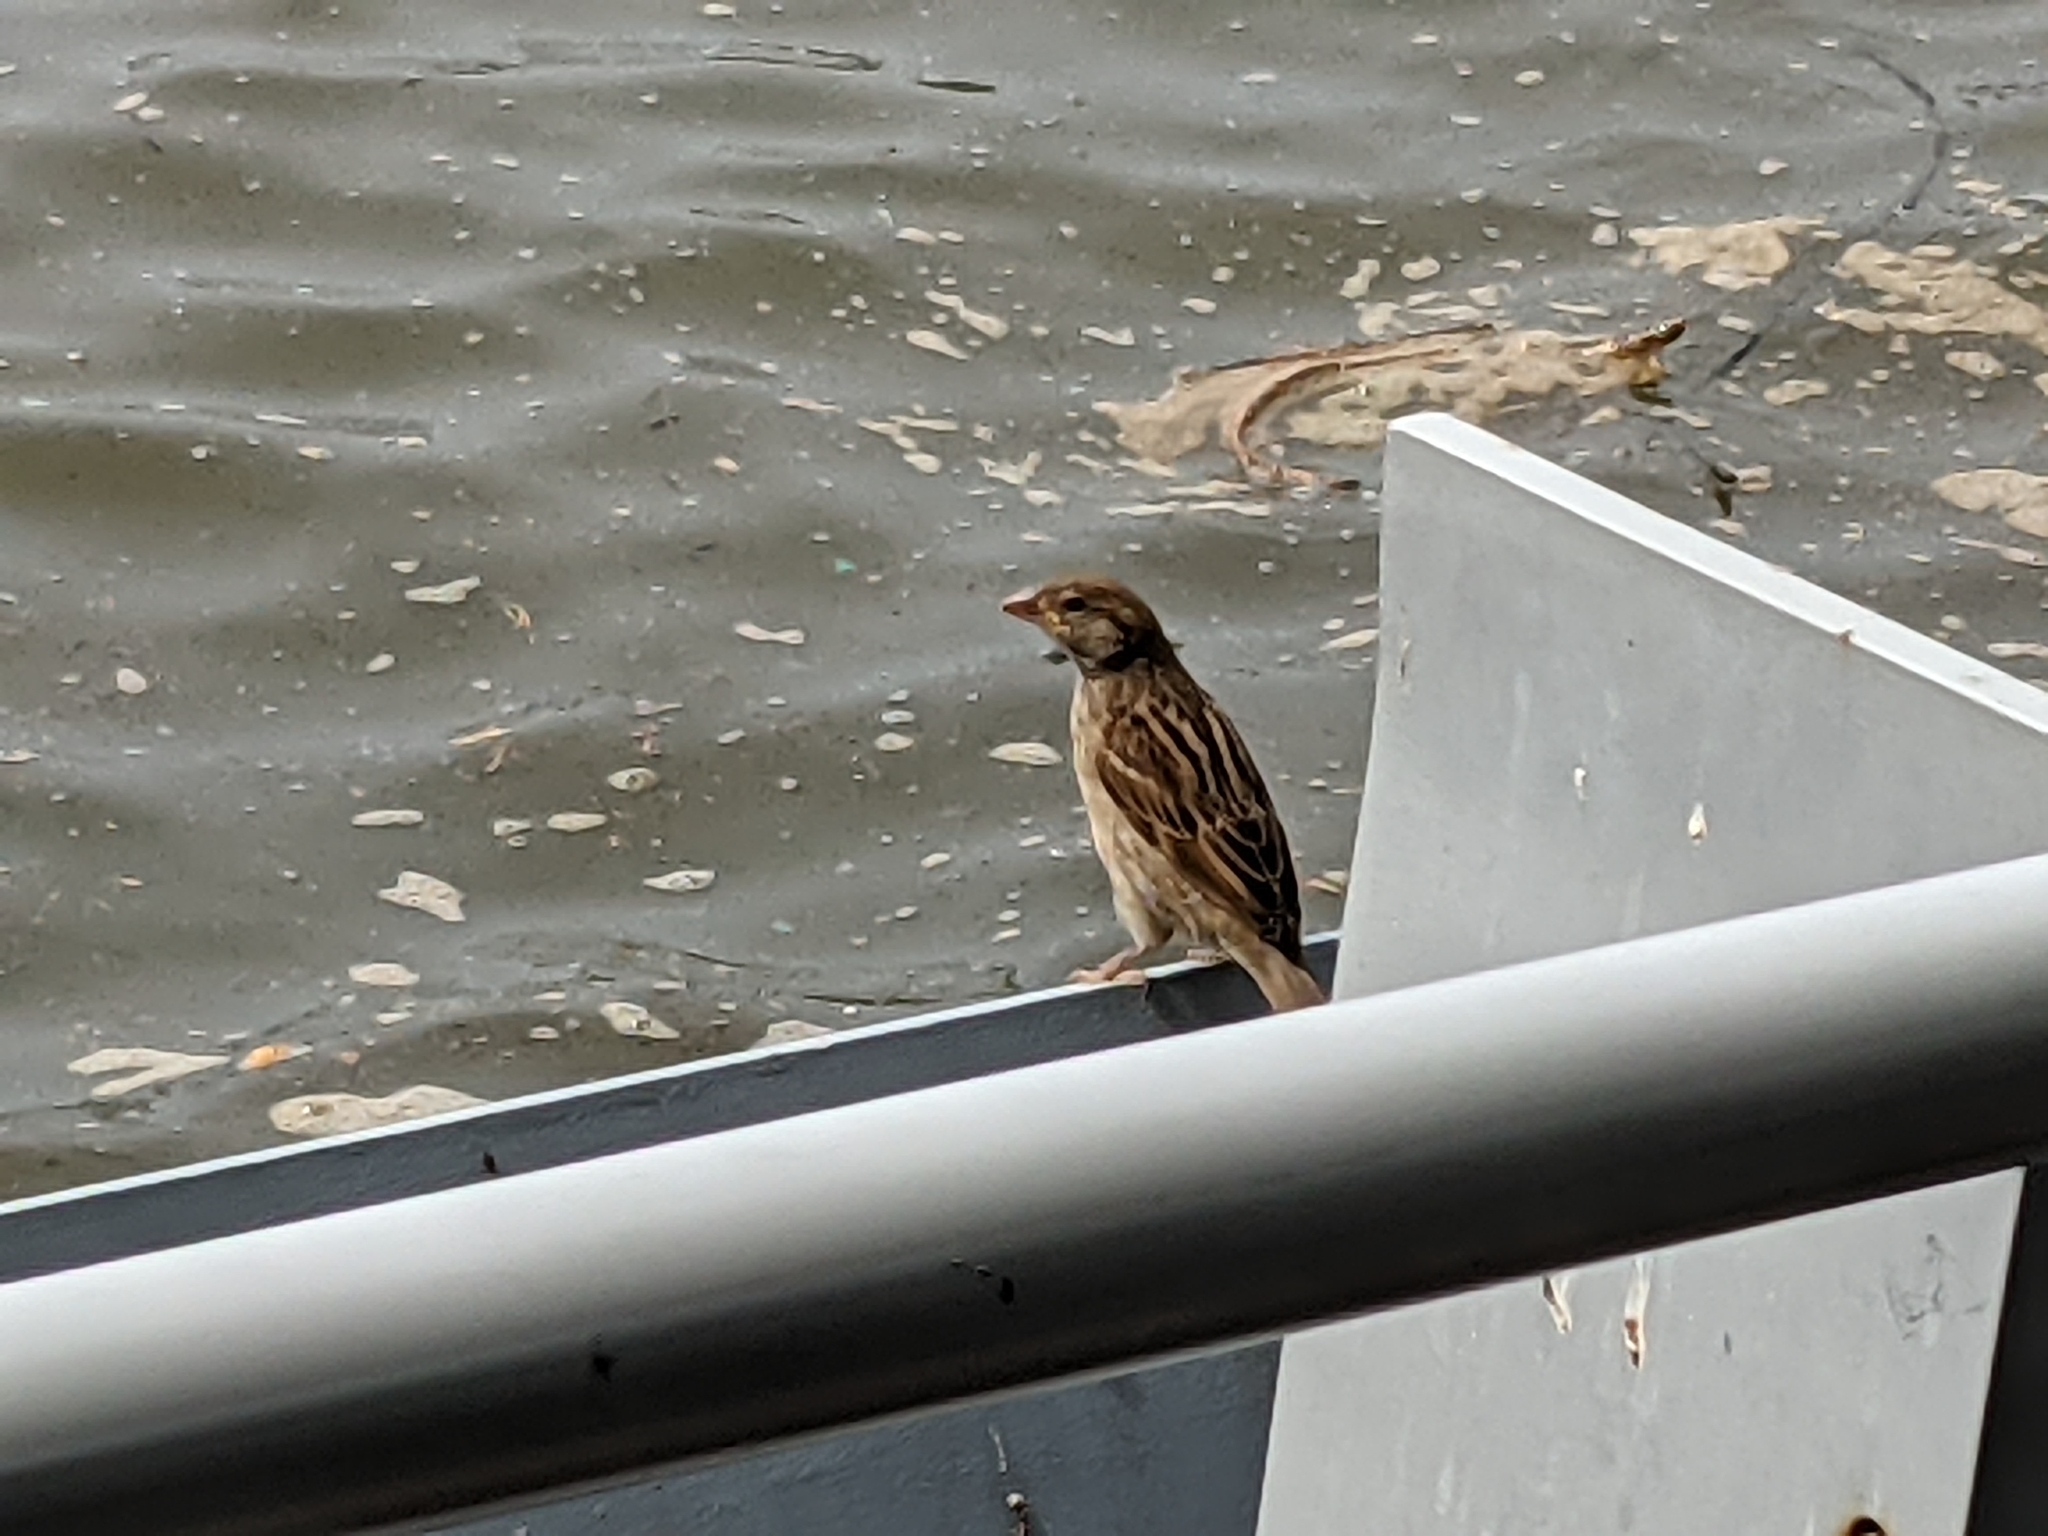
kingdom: Animalia
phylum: Chordata
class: Aves
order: Passeriformes
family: Passeridae
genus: Passer
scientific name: Passer domesticus
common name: House sparrow
